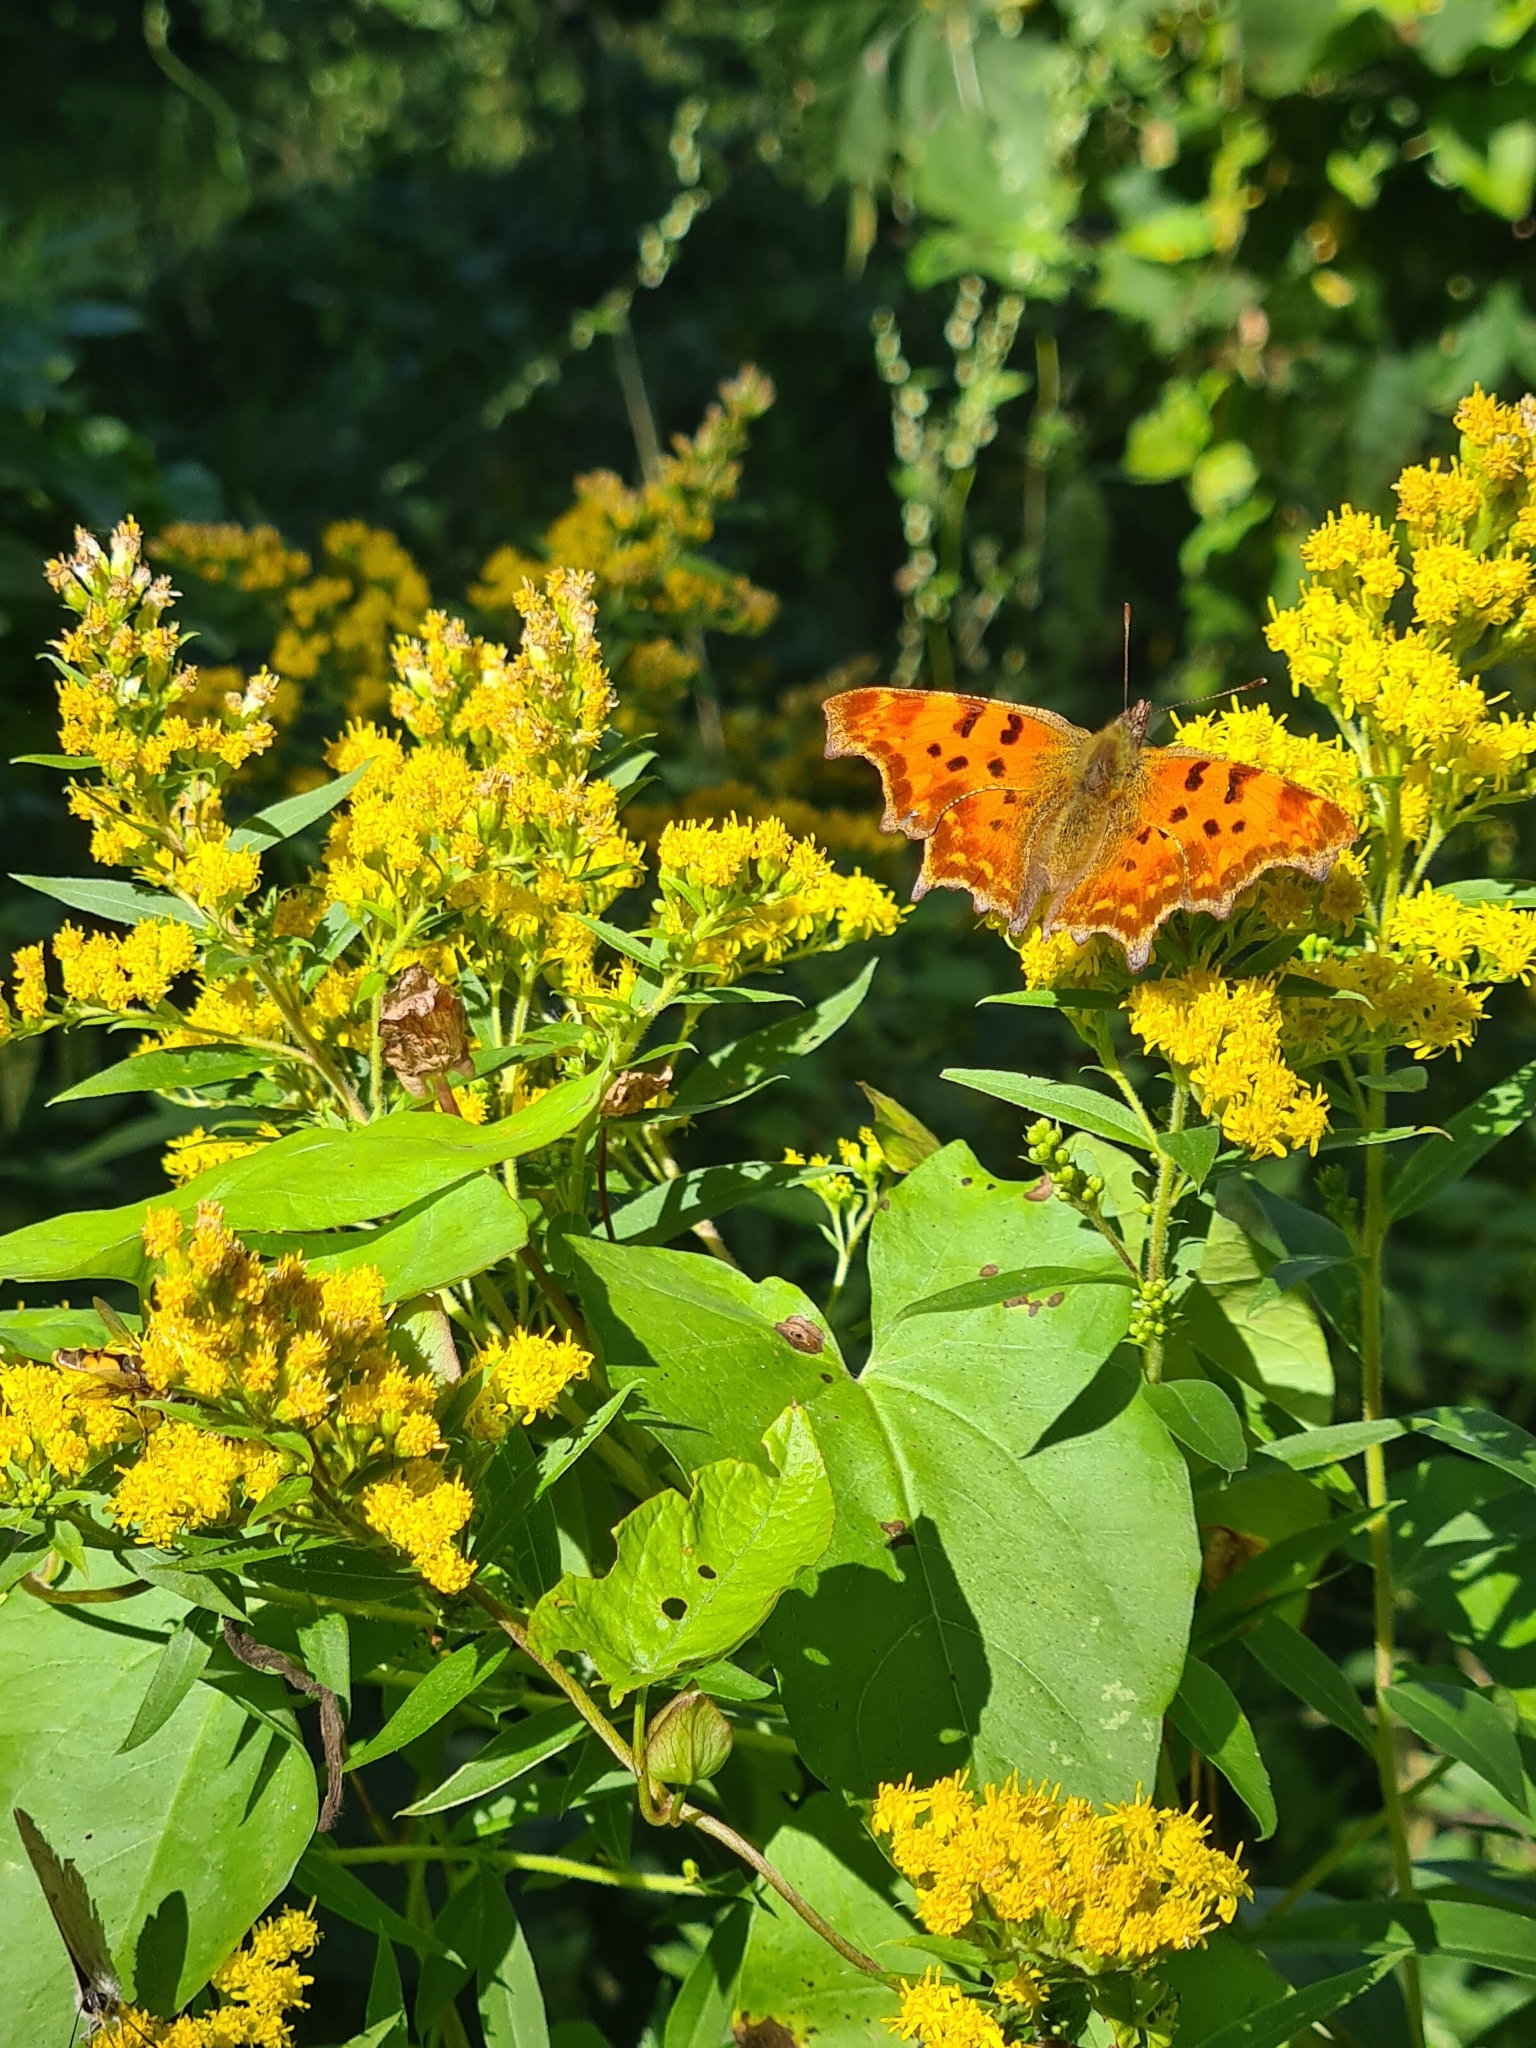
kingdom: Animalia
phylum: Arthropoda
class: Insecta
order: Lepidoptera
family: Nymphalidae
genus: Polygonia
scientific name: Polygonia c-album
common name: Comma
